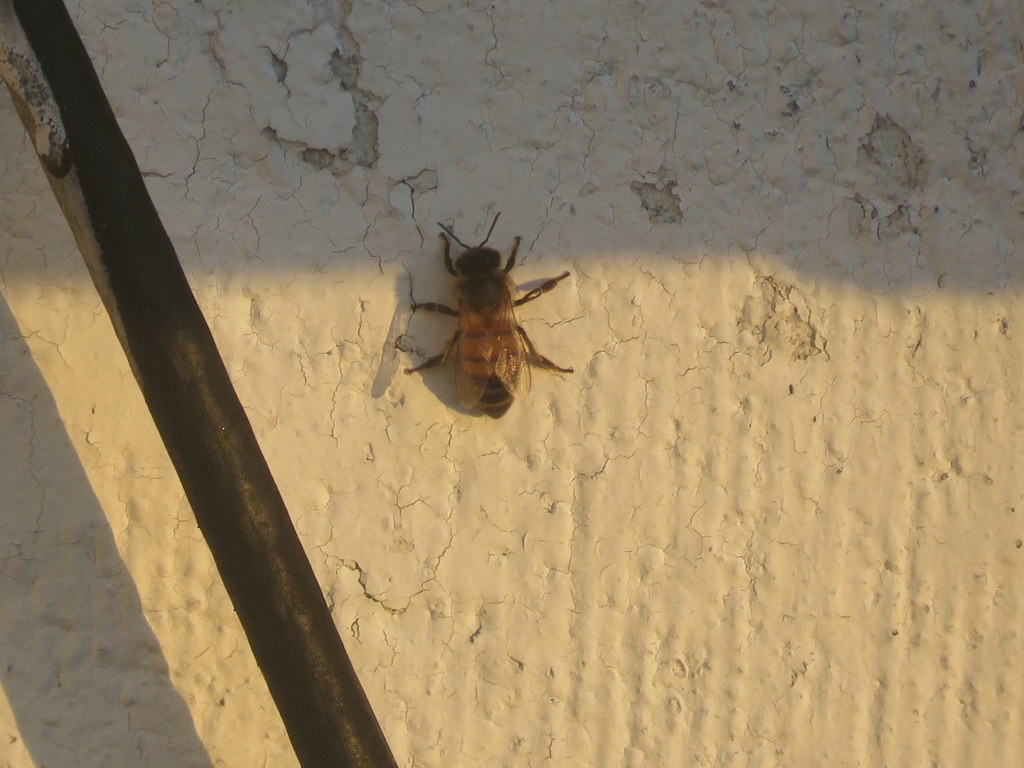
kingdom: Animalia
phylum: Arthropoda
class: Insecta
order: Hymenoptera
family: Apidae
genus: Apis
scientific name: Apis mellifera
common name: Honey bee
